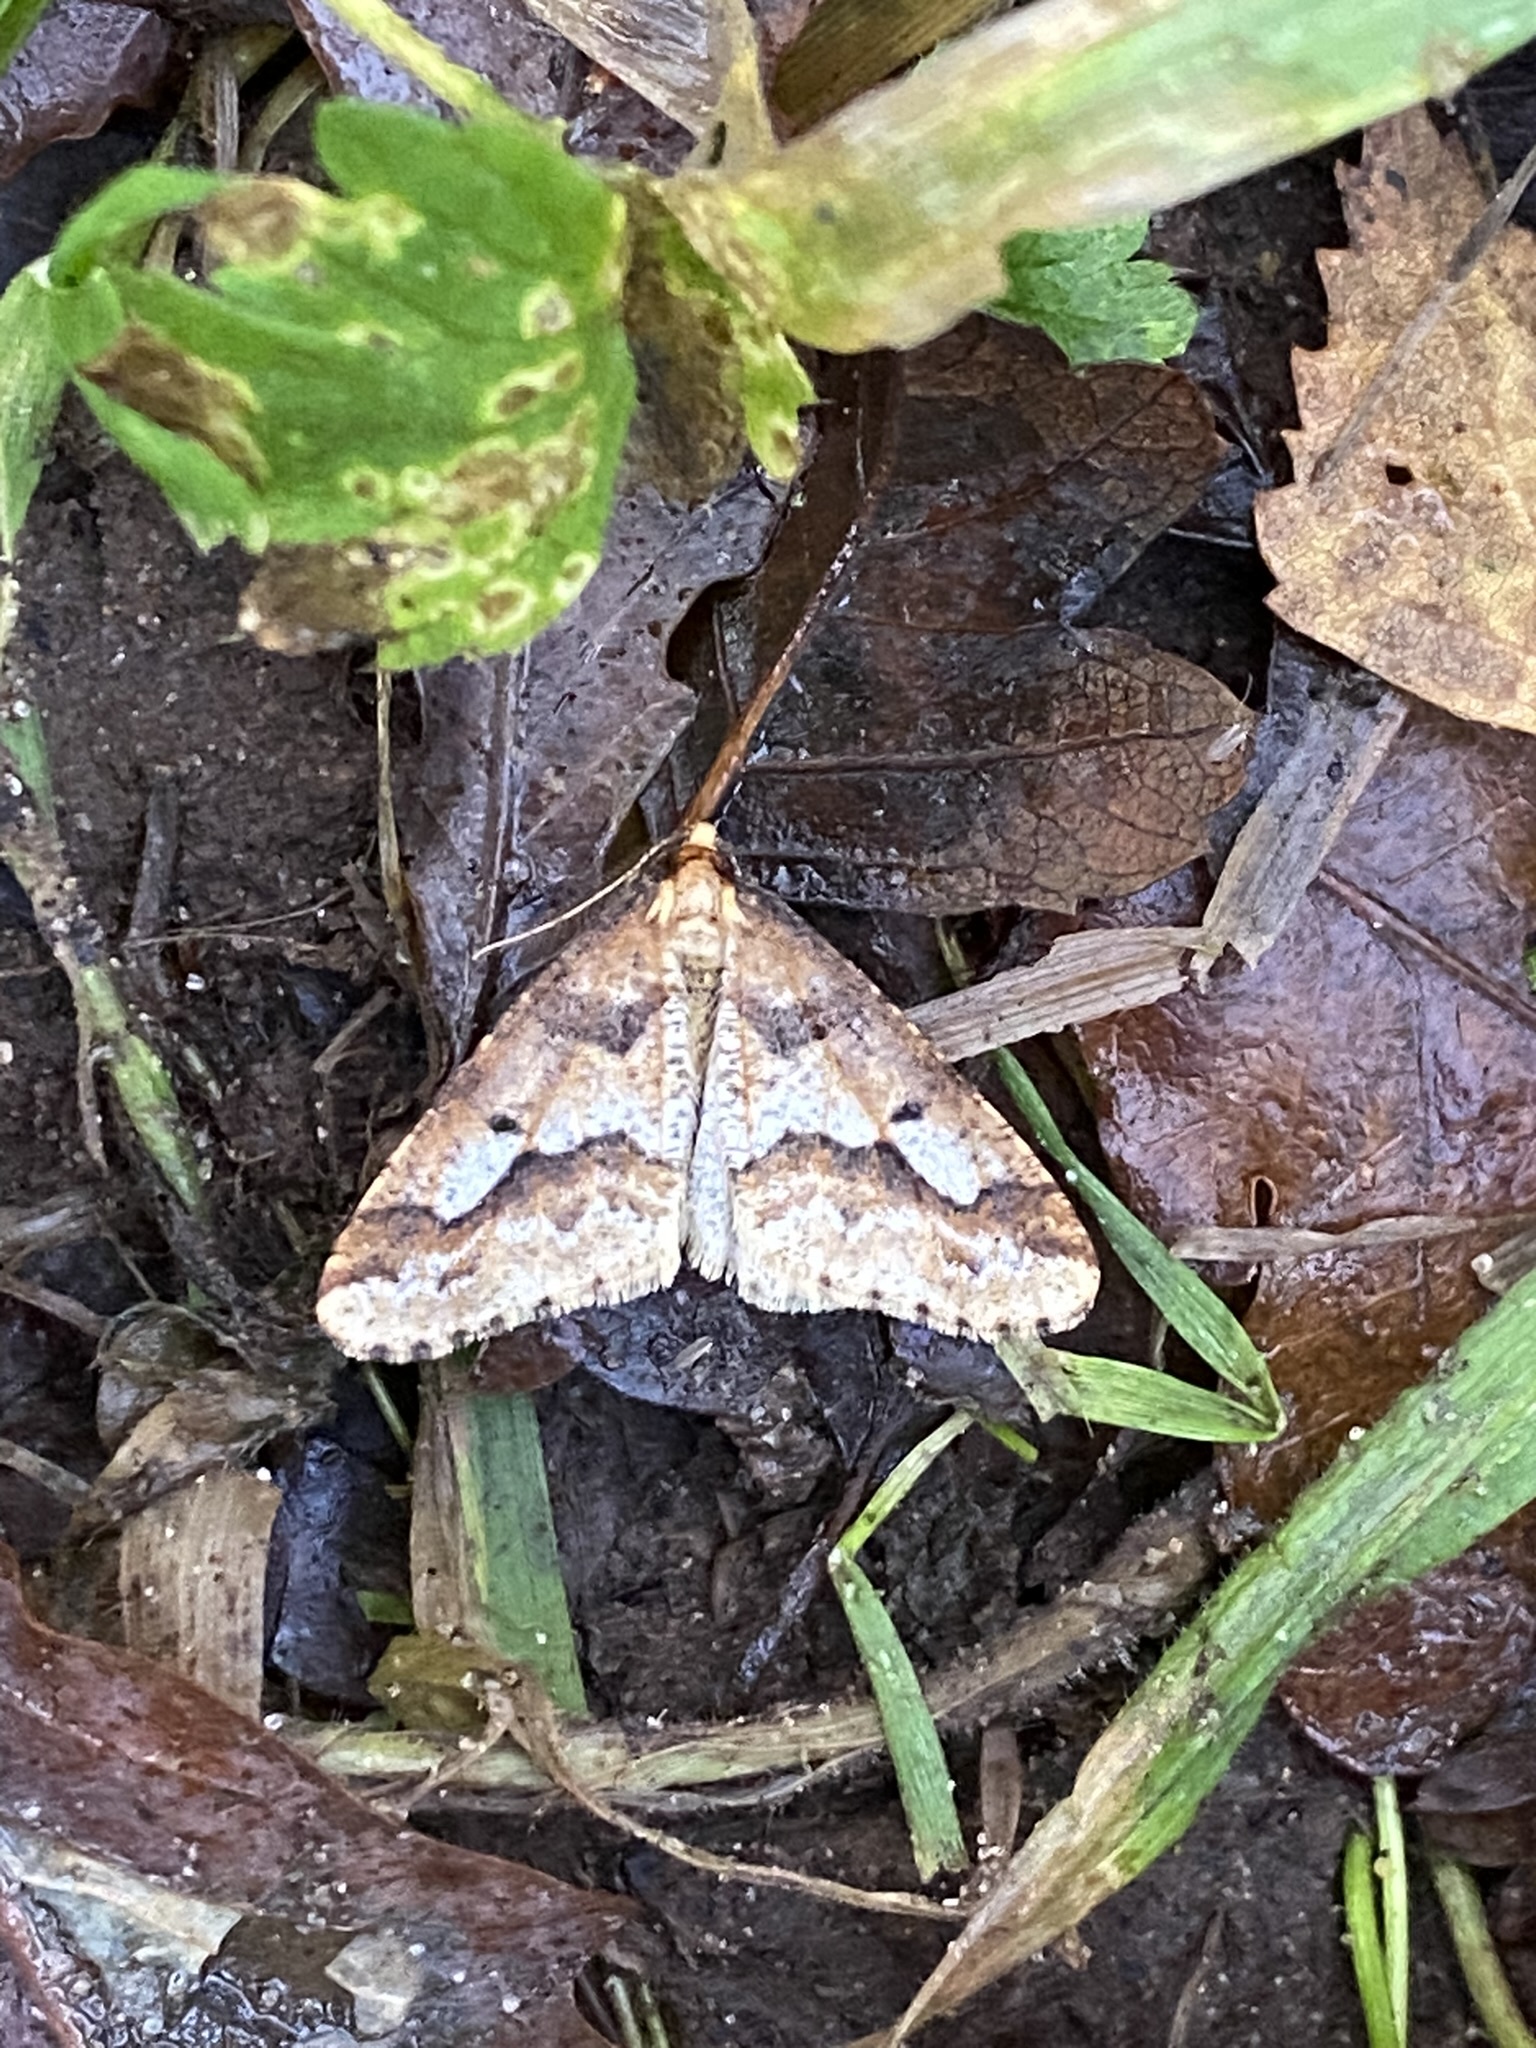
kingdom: Animalia
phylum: Arthropoda
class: Insecta
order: Lepidoptera
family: Geometridae
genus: Erannis
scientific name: Erannis defoliaria
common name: Mottled umber
